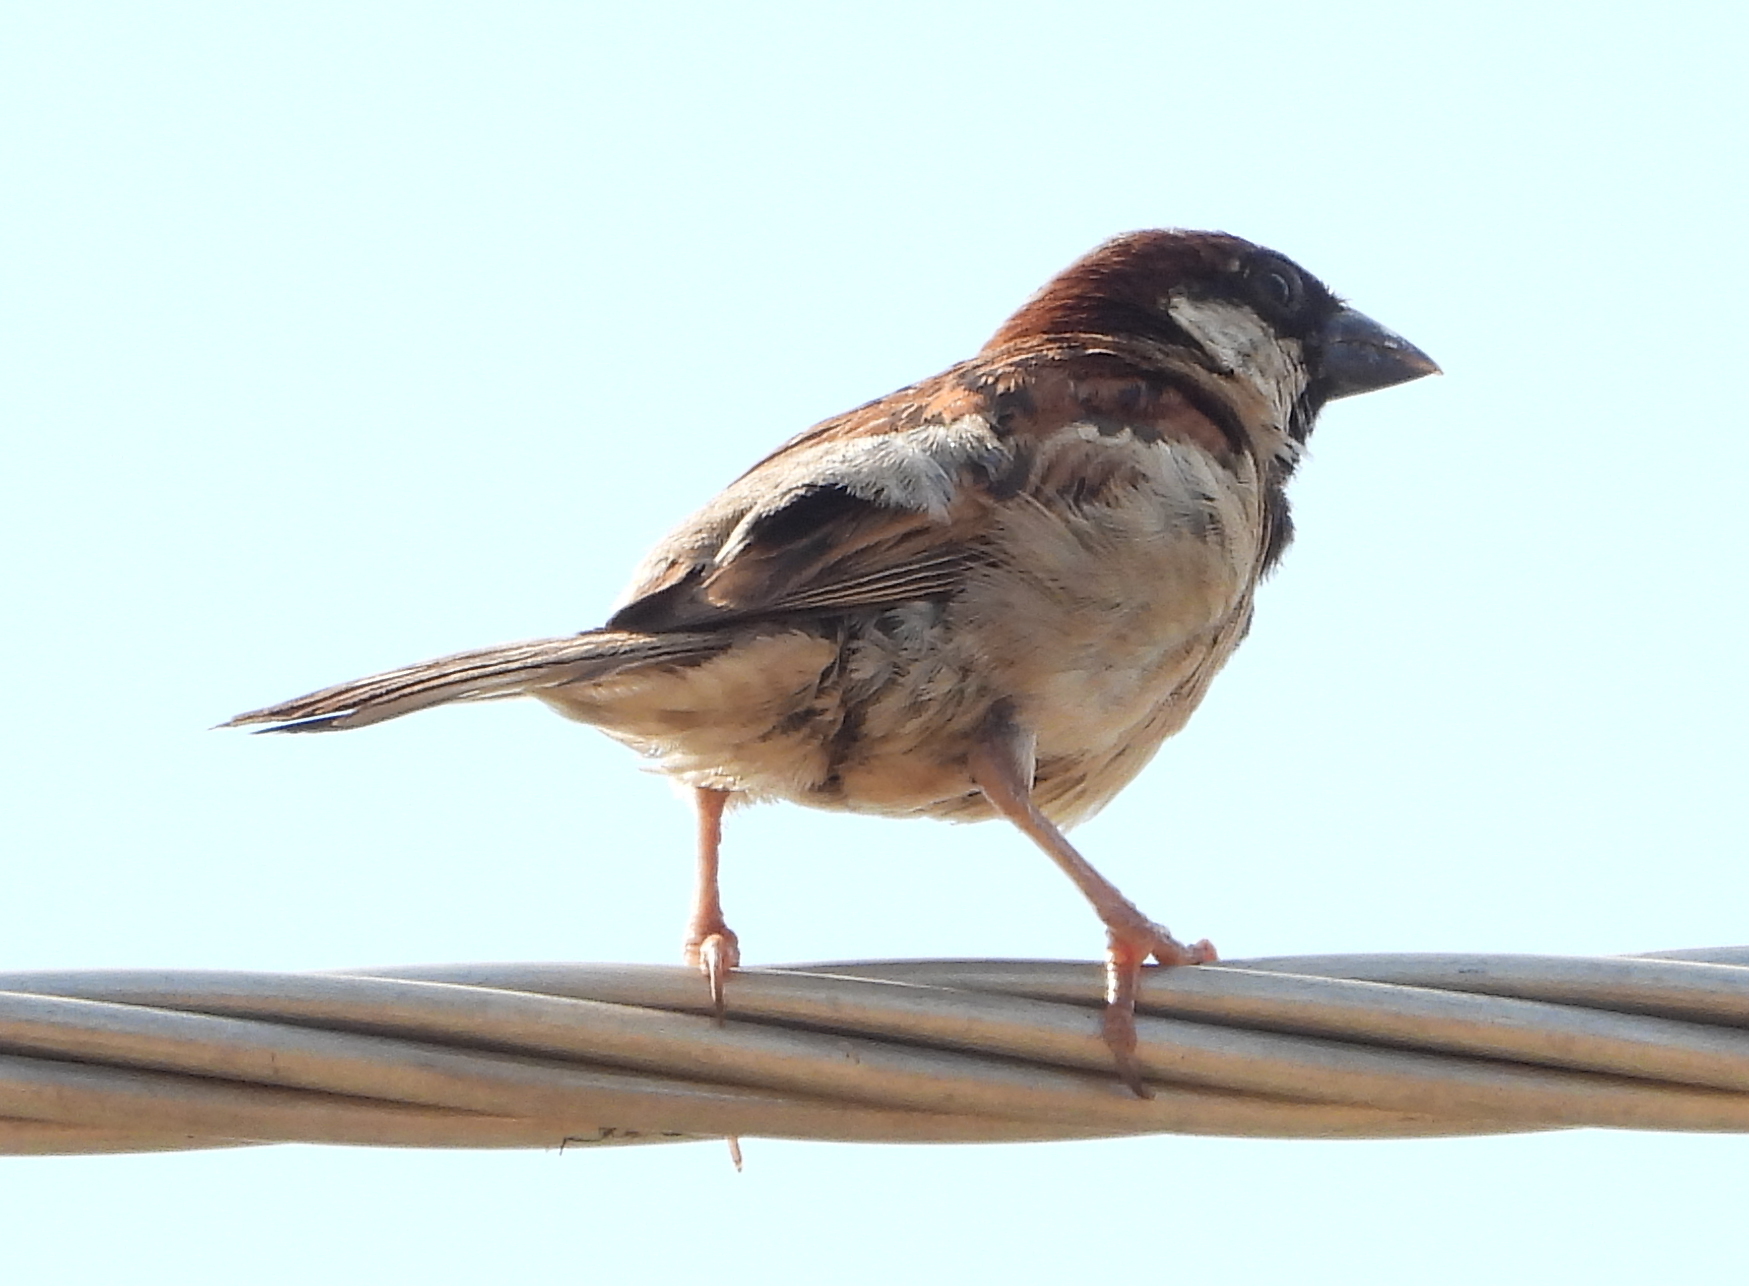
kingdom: Animalia
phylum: Chordata
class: Aves
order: Passeriformes
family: Passeridae
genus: Passer
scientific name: Passer domesticus
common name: House sparrow
